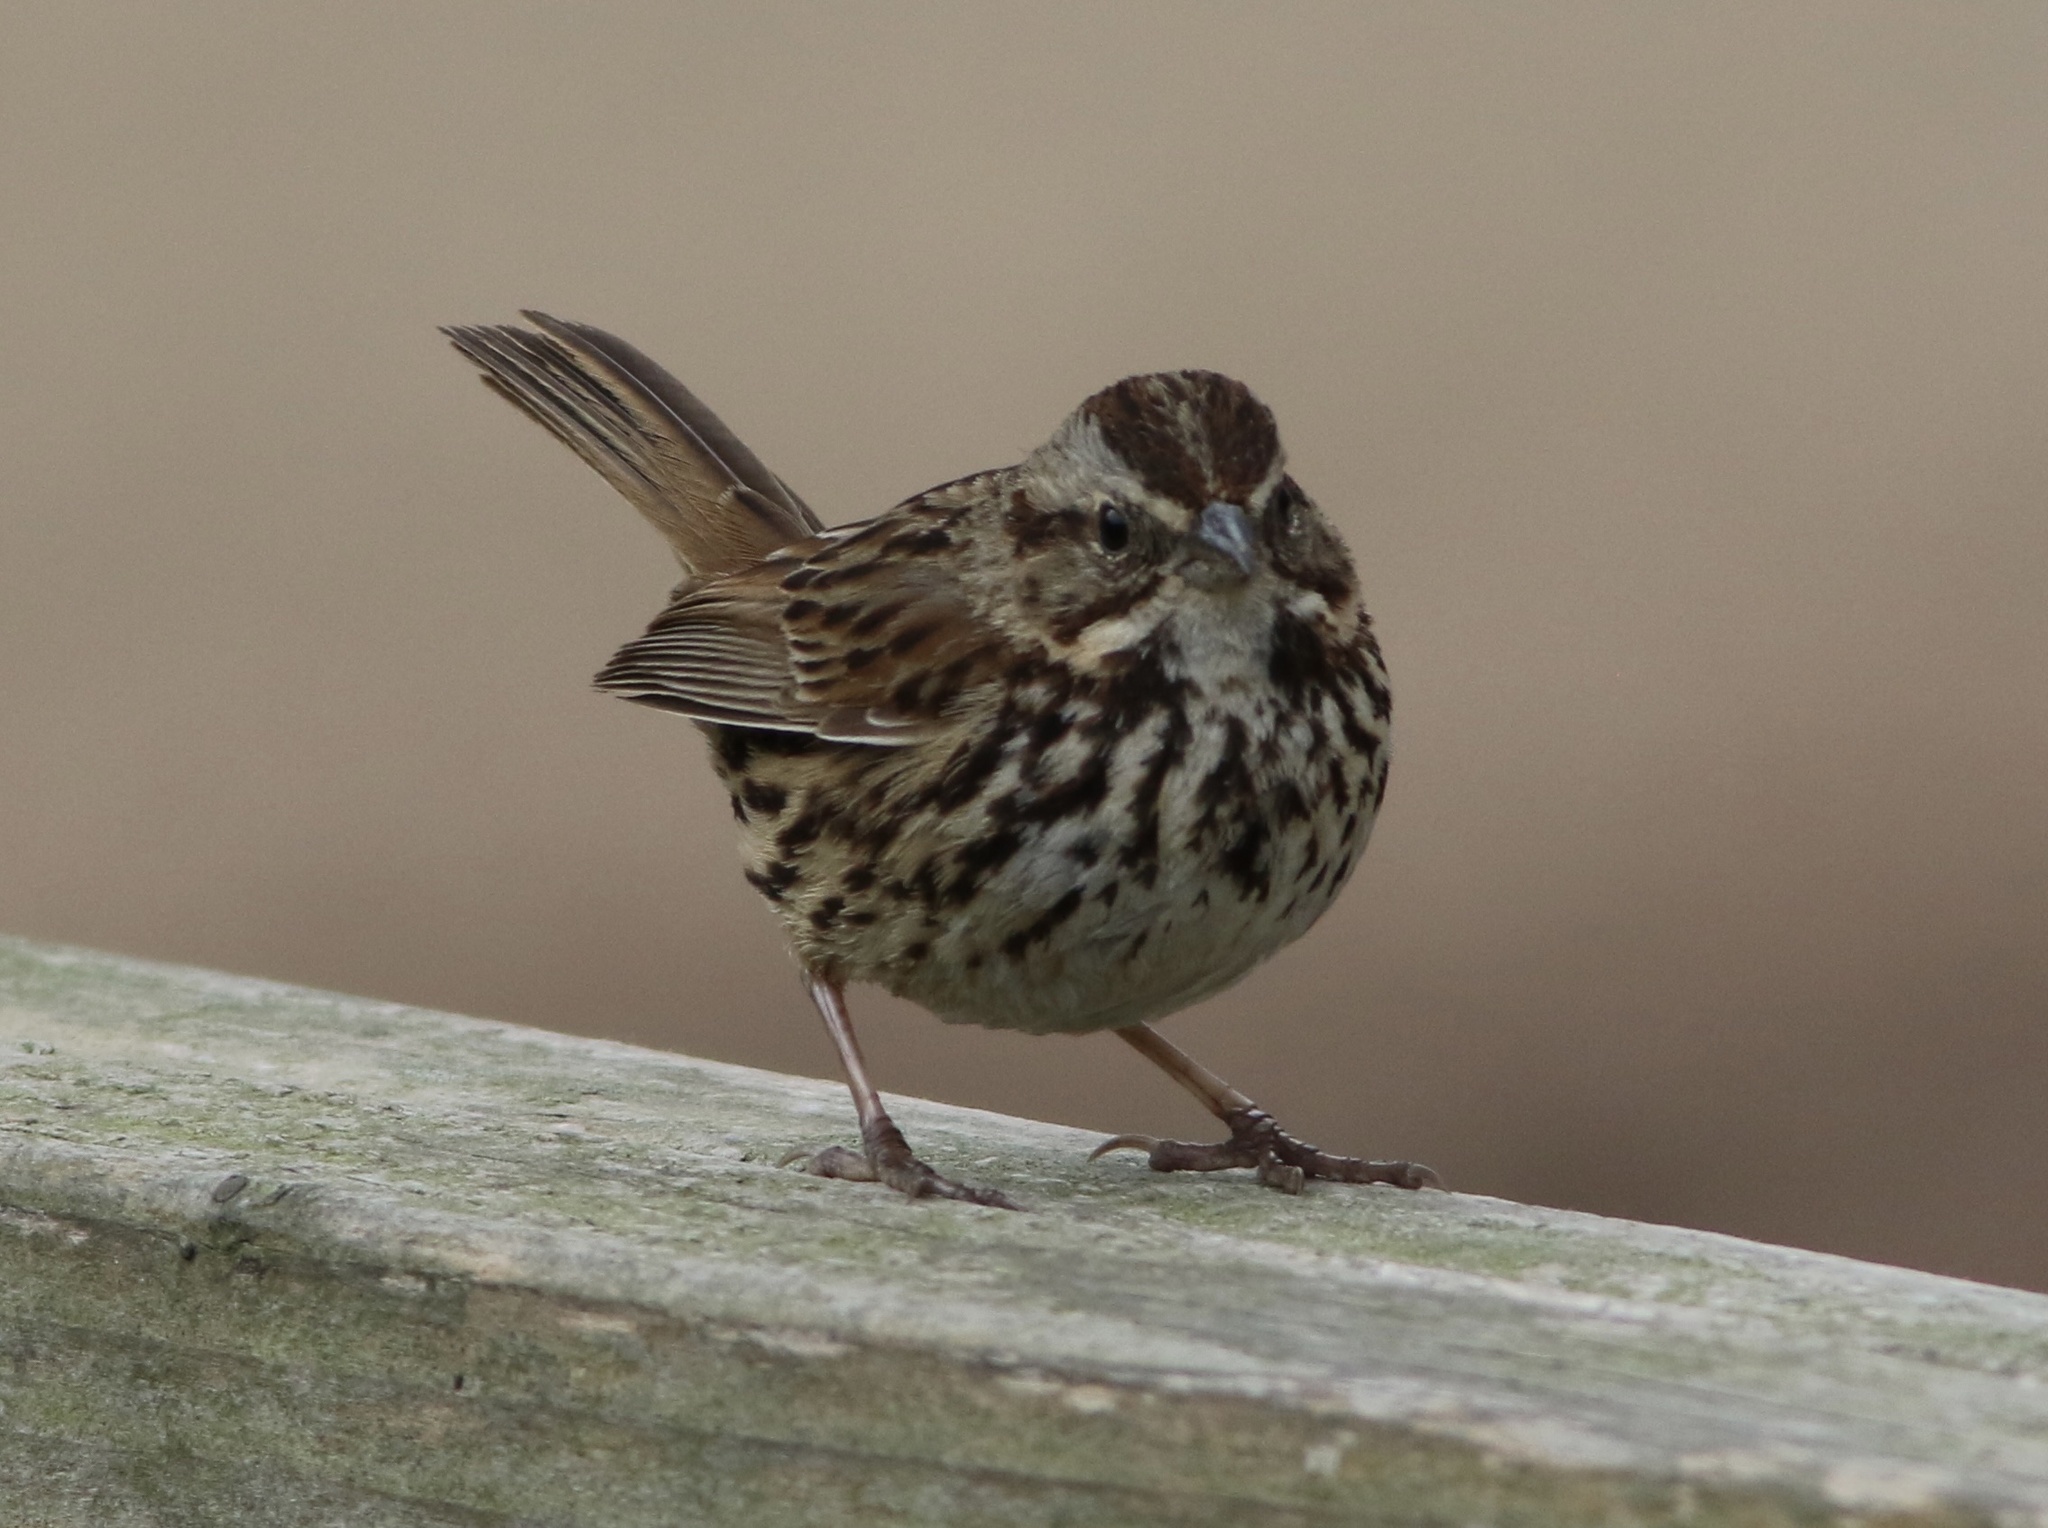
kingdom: Animalia
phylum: Chordata
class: Aves
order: Passeriformes
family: Passerellidae
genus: Melospiza
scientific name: Melospiza melodia
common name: Song sparrow
